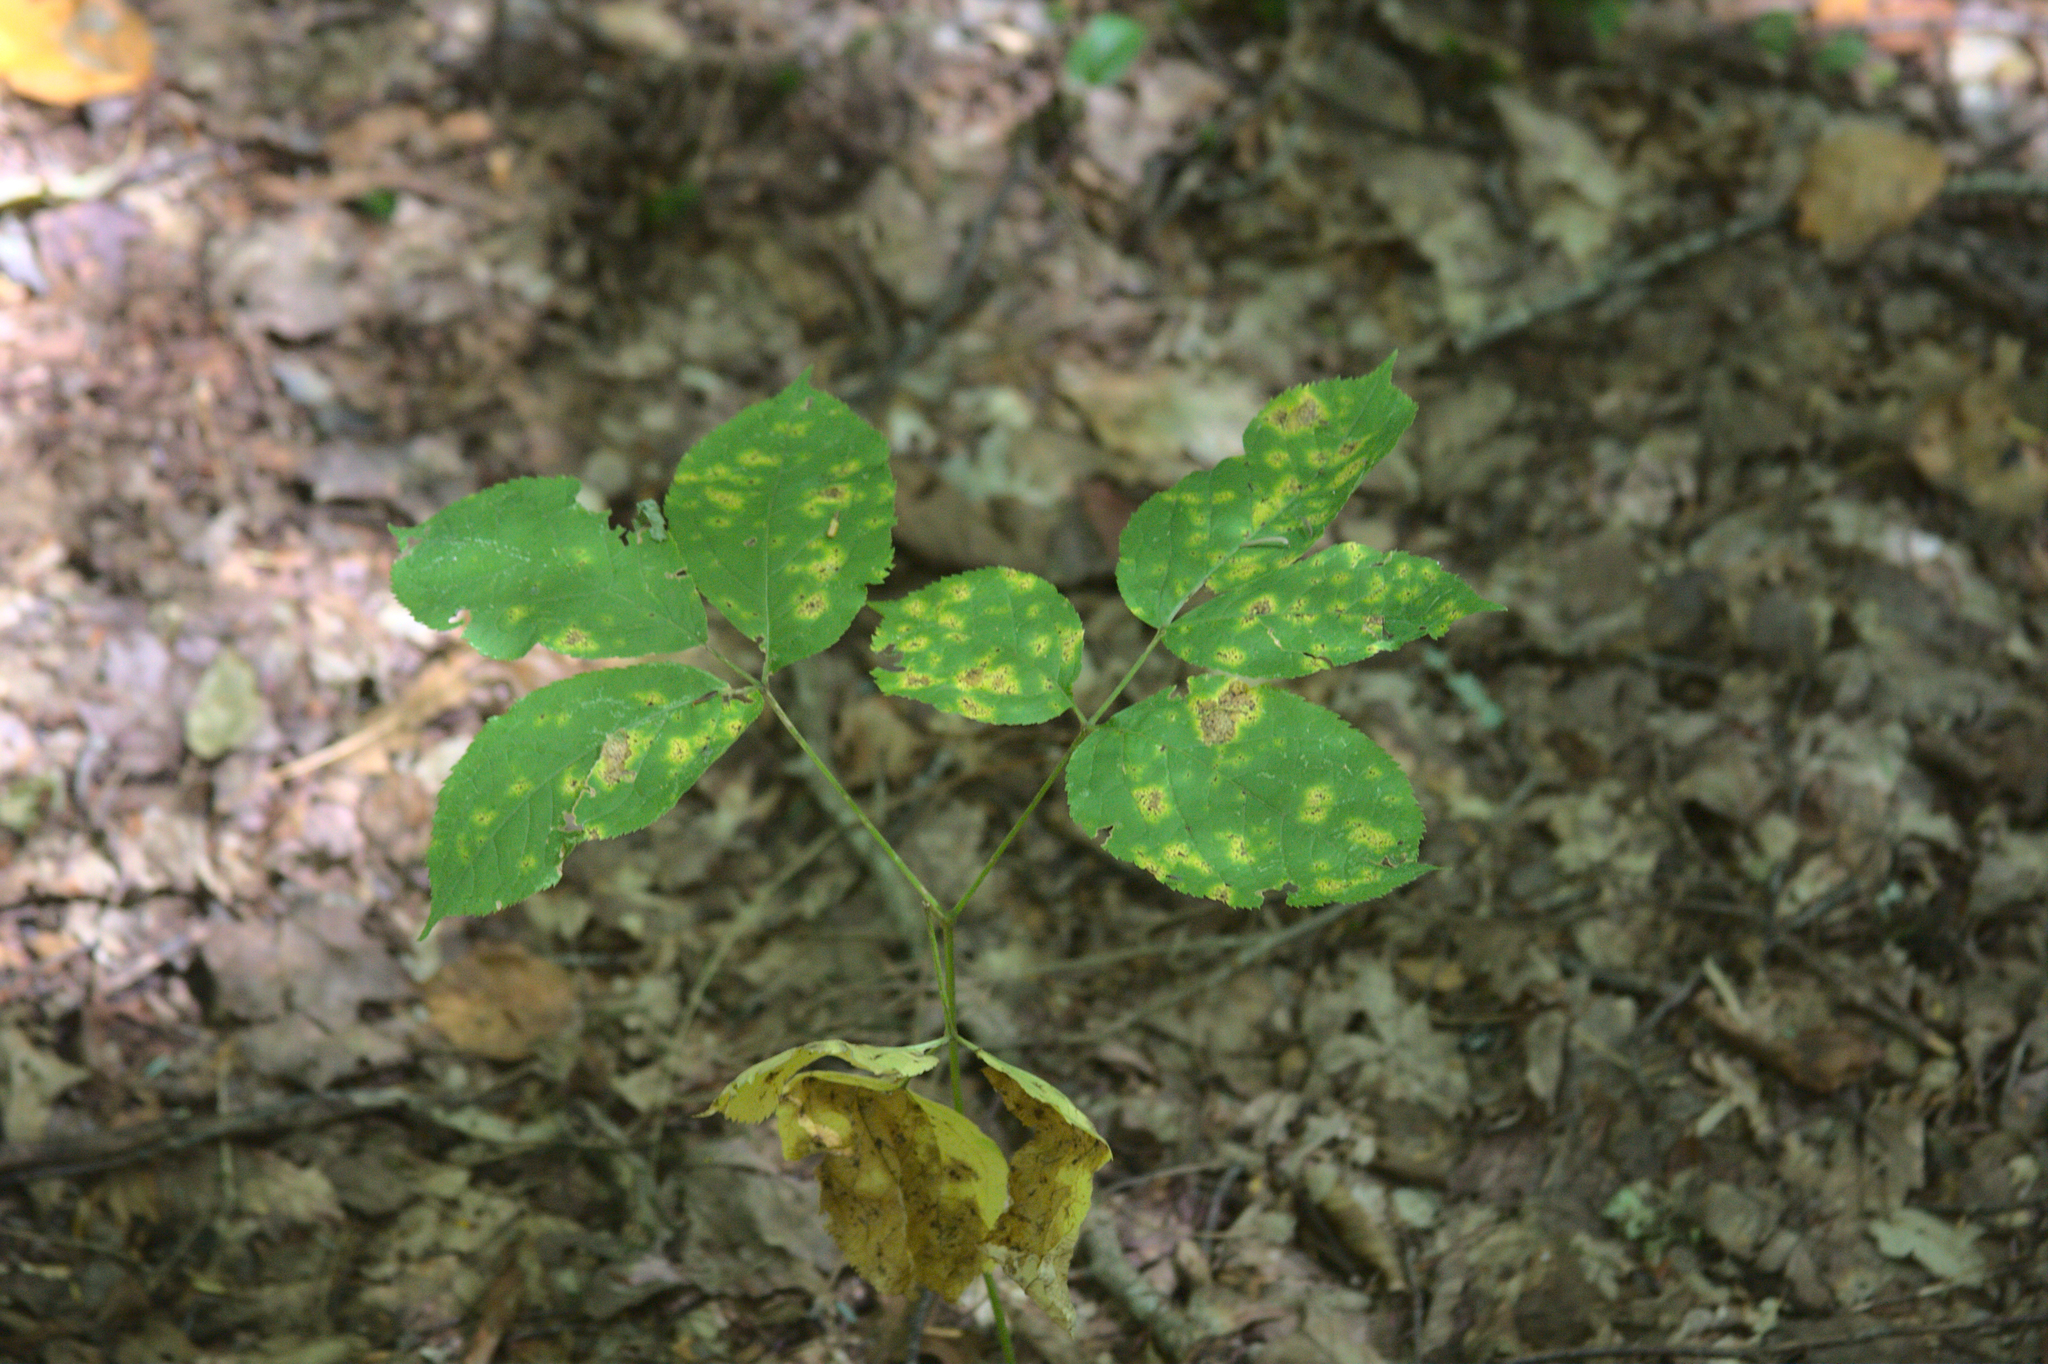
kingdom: Plantae
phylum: Tracheophyta
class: Magnoliopsida
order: Apiales
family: Araliaceae
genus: Aralia
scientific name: Aralia nudicaulis
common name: Wild sarsaparilla
